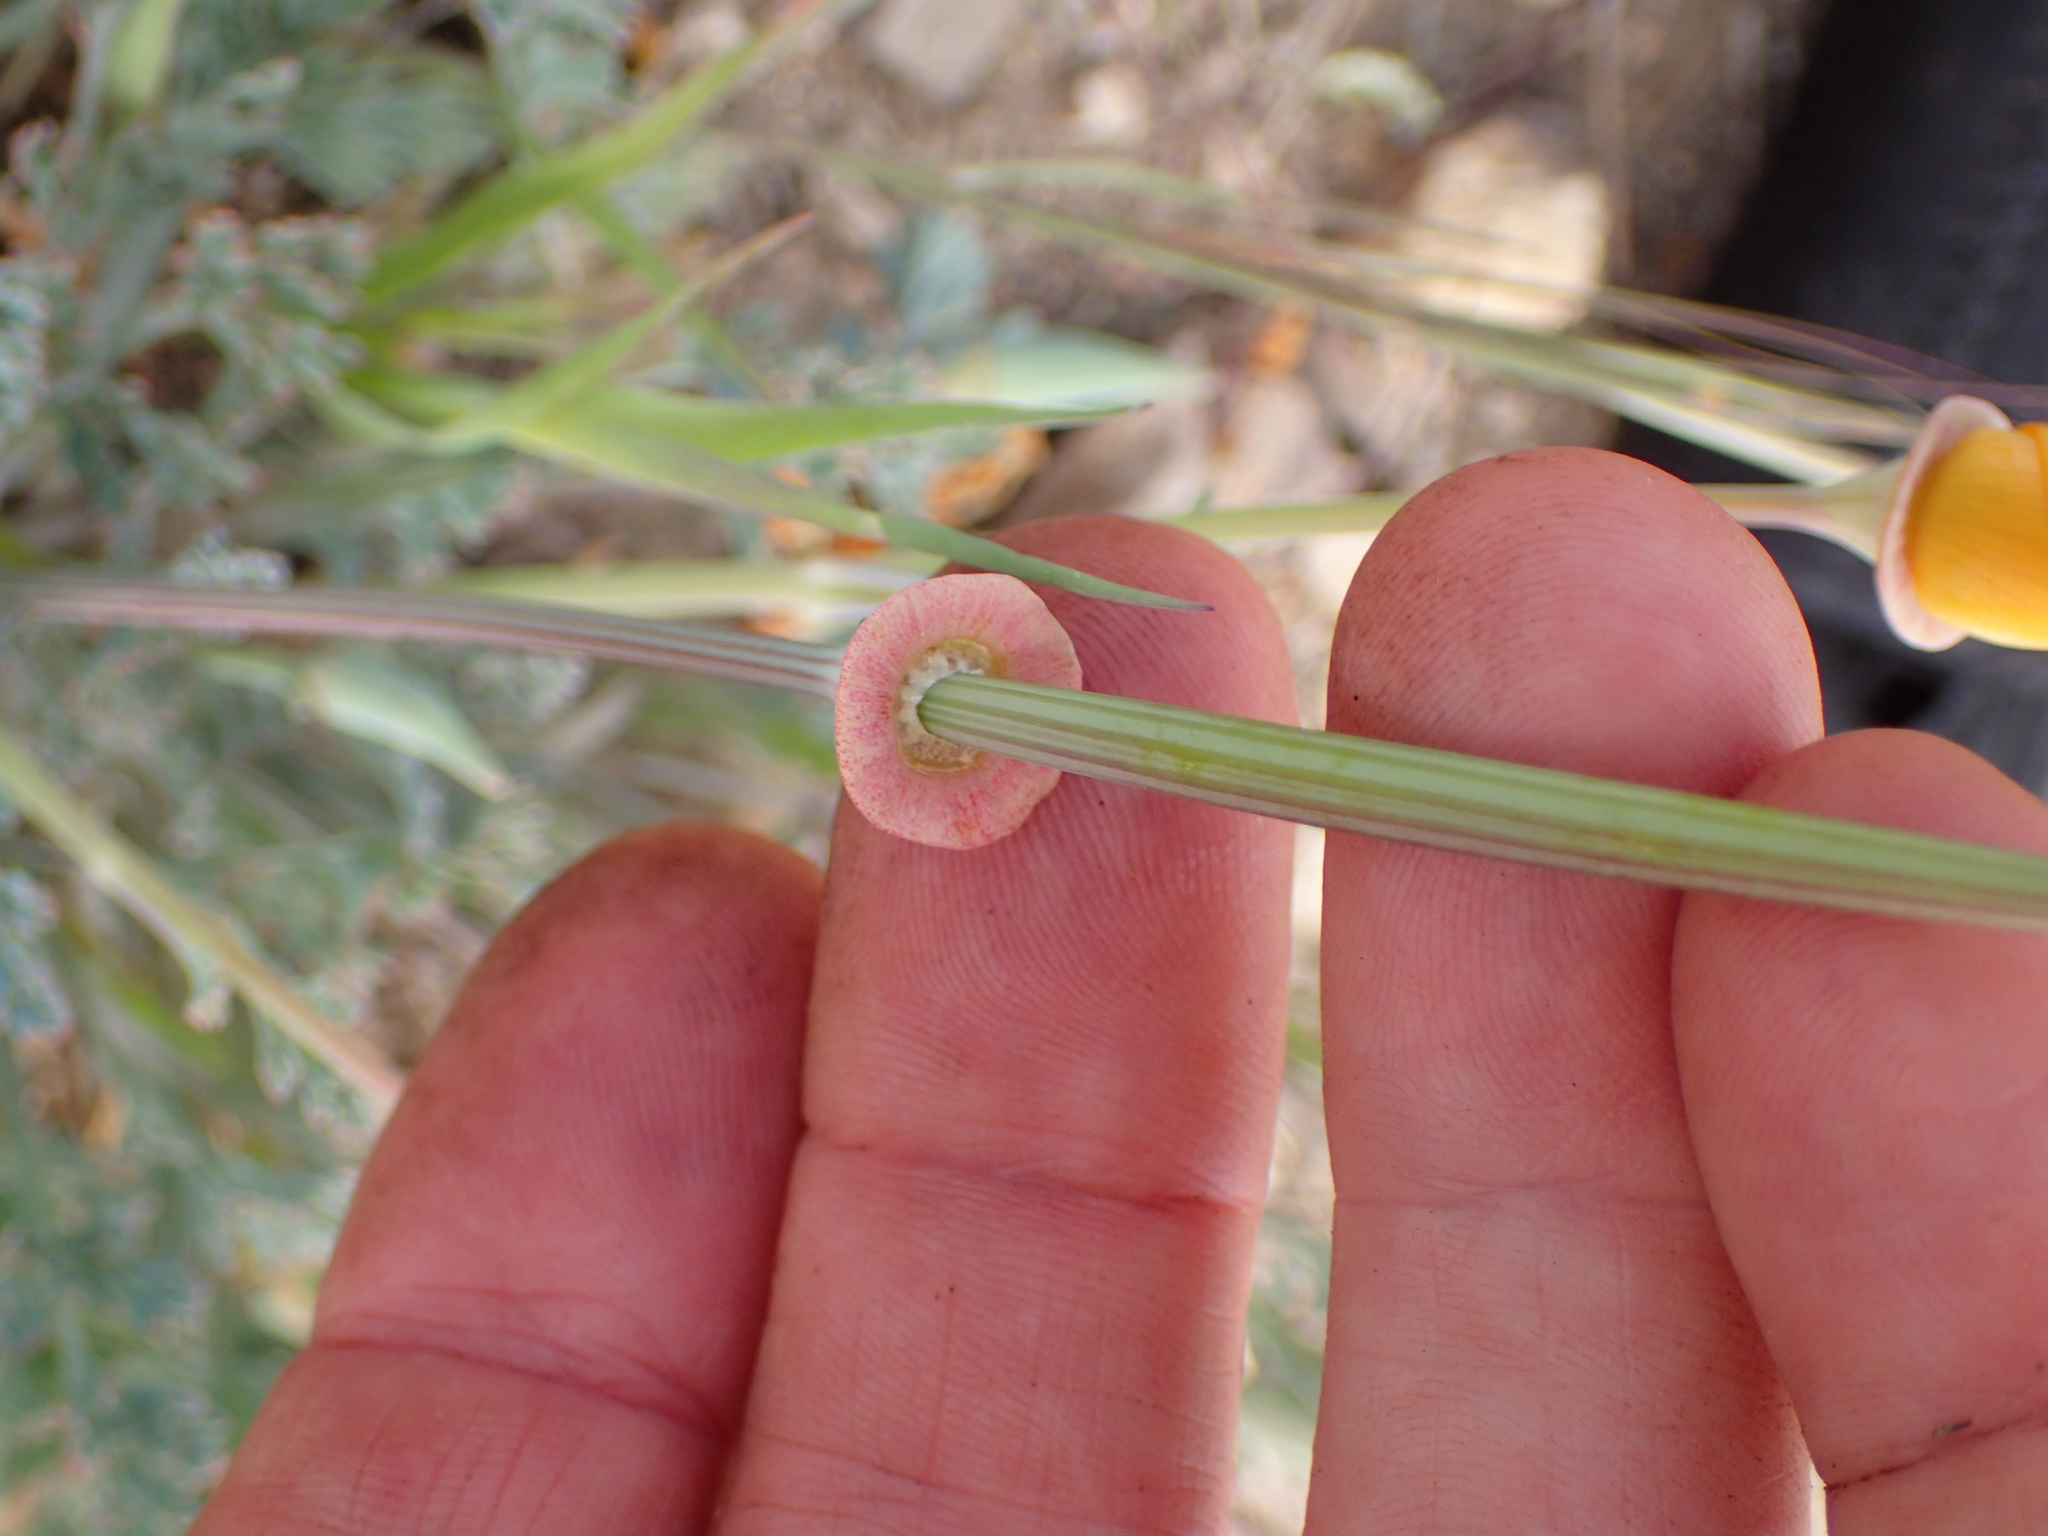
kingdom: Plantae
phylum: Tracheophyta
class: Magnoliopsida
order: Ranunculales
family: Papaveraceae
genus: Eschscholzia
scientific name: Eschscholzia californica
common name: California poppy
